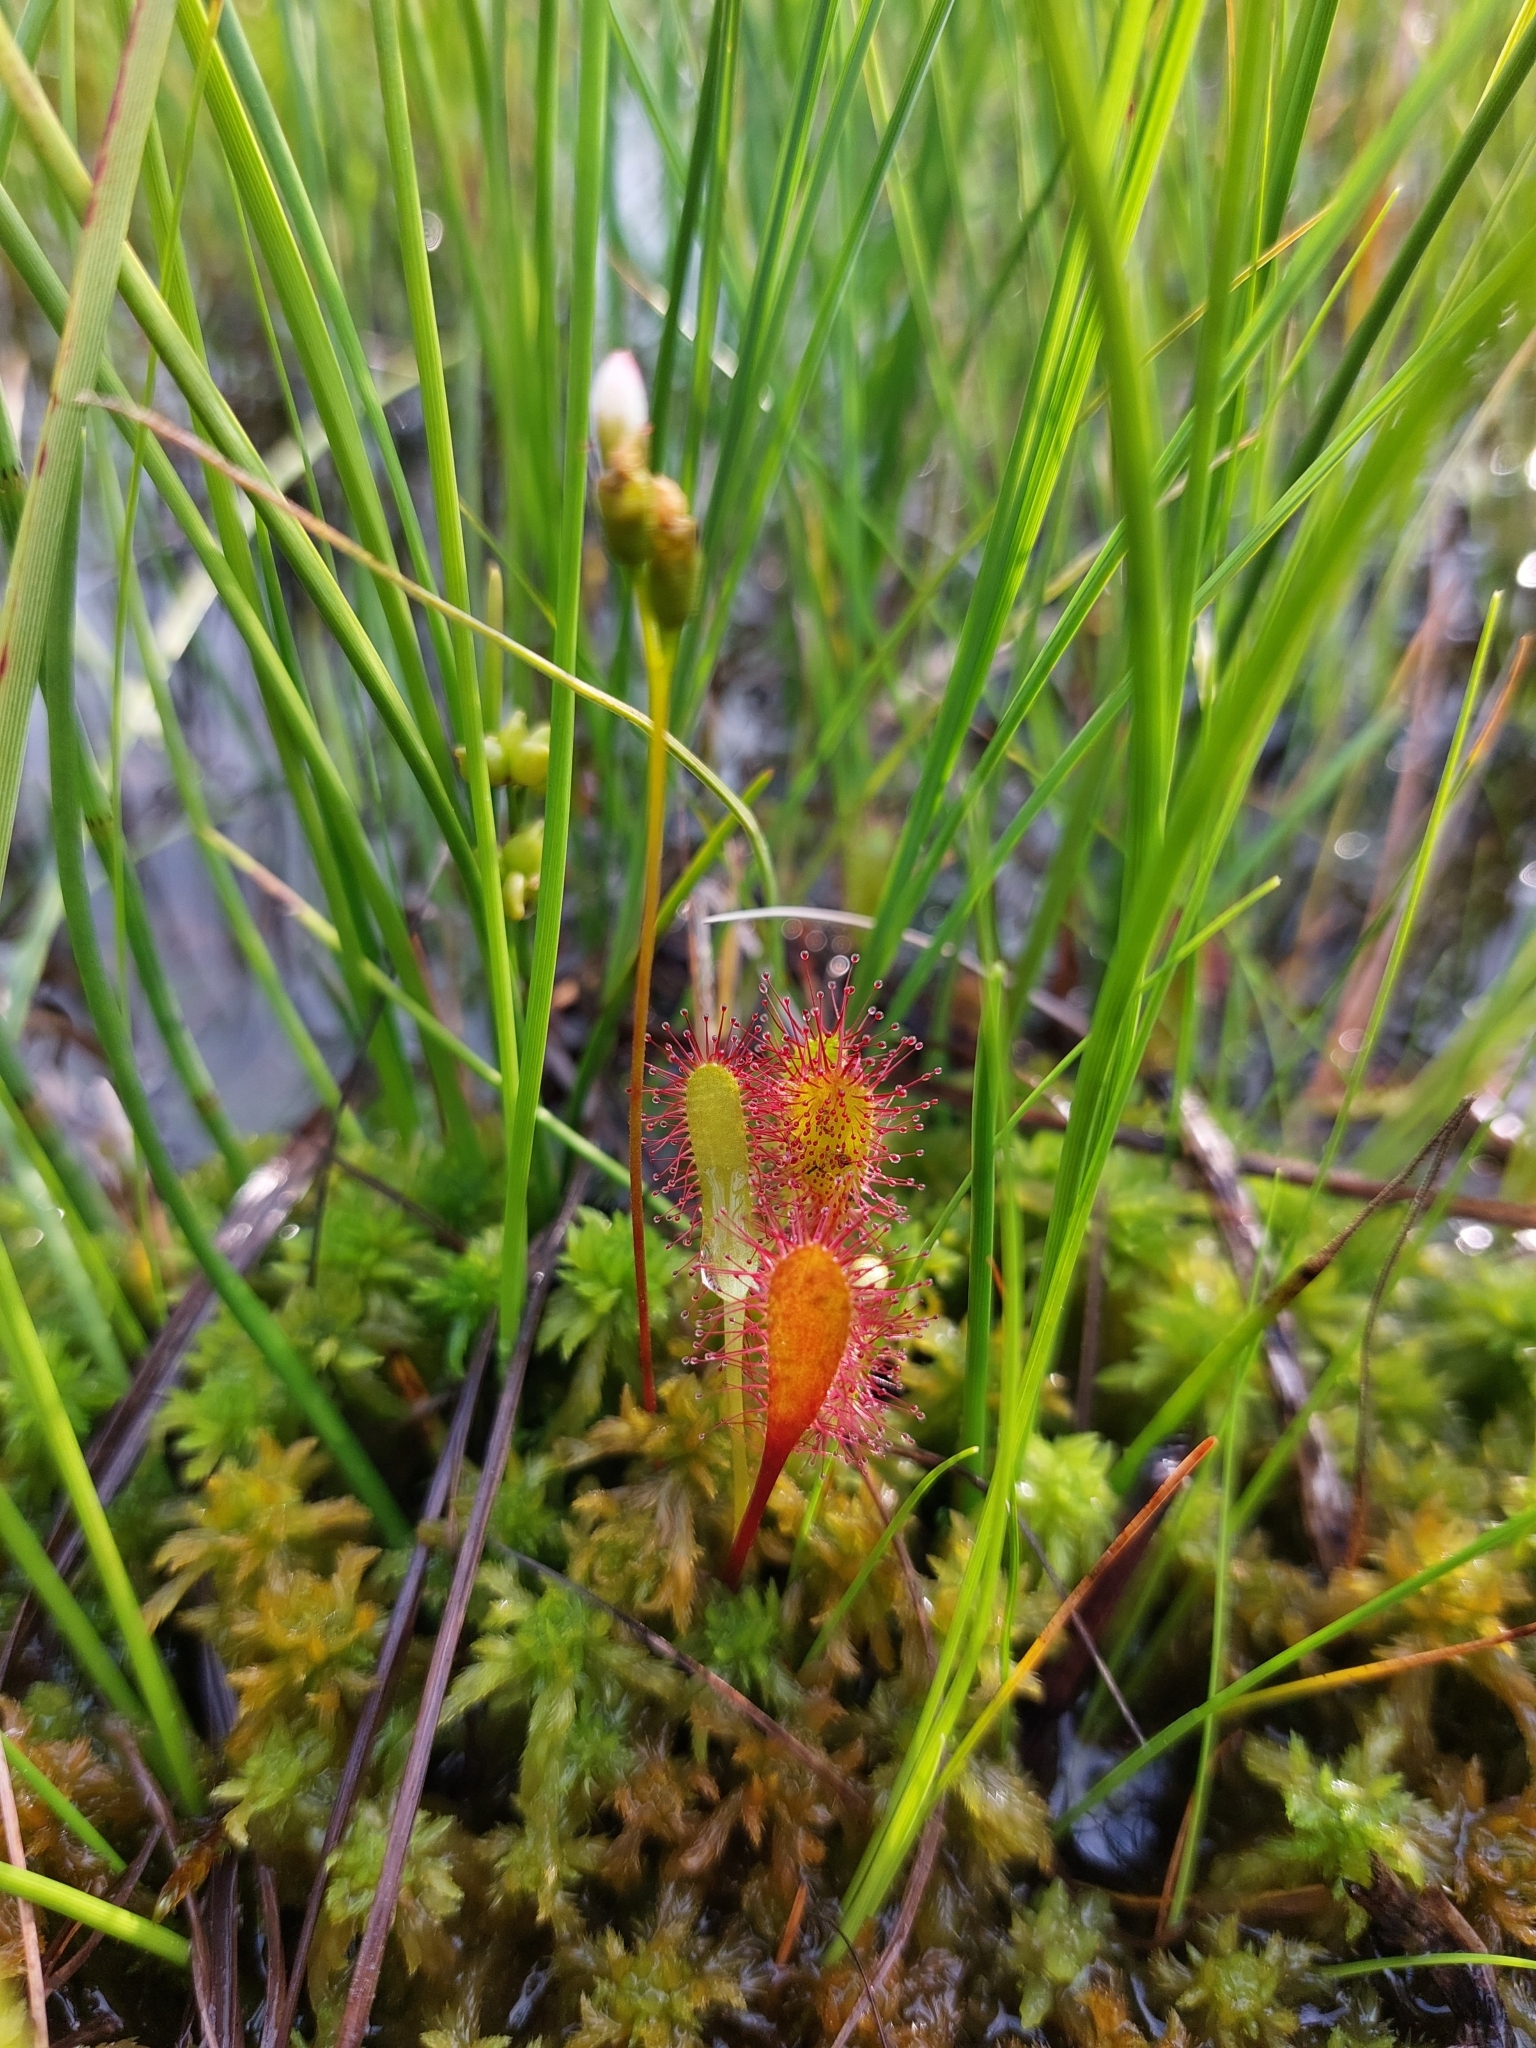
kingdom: Plantae
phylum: Tracheophyta
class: Magnoliopsida
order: Caryophyllales
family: Droseraceae
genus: Drosera
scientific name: Drosera anglica
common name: Great sundew
